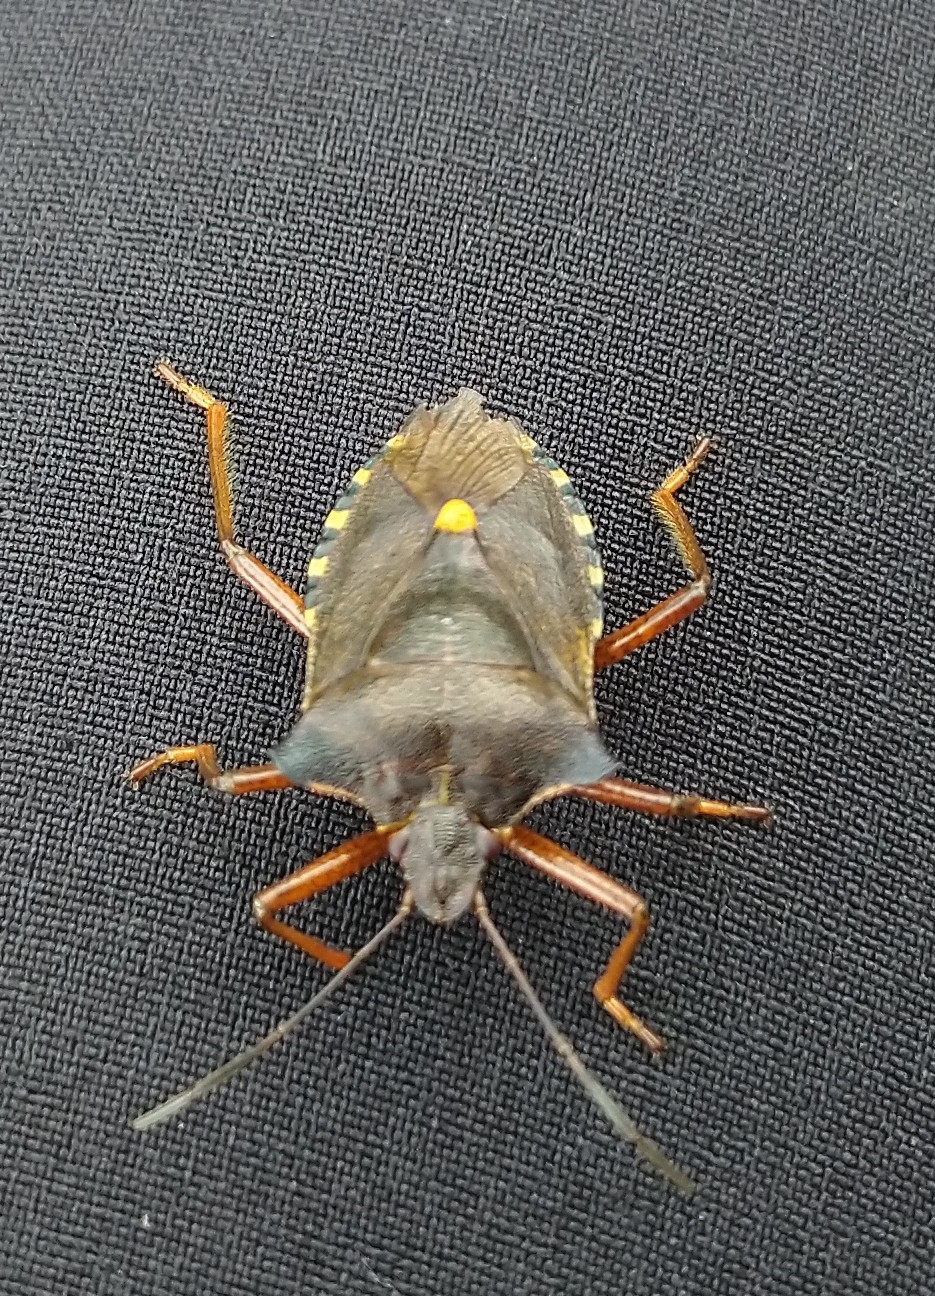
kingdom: Animalia
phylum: Arthropoda
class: Insecta
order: Hemiptera
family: Pentatomidae
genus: Pentatoma
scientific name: Pentatoma rufipes
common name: Forest bug
